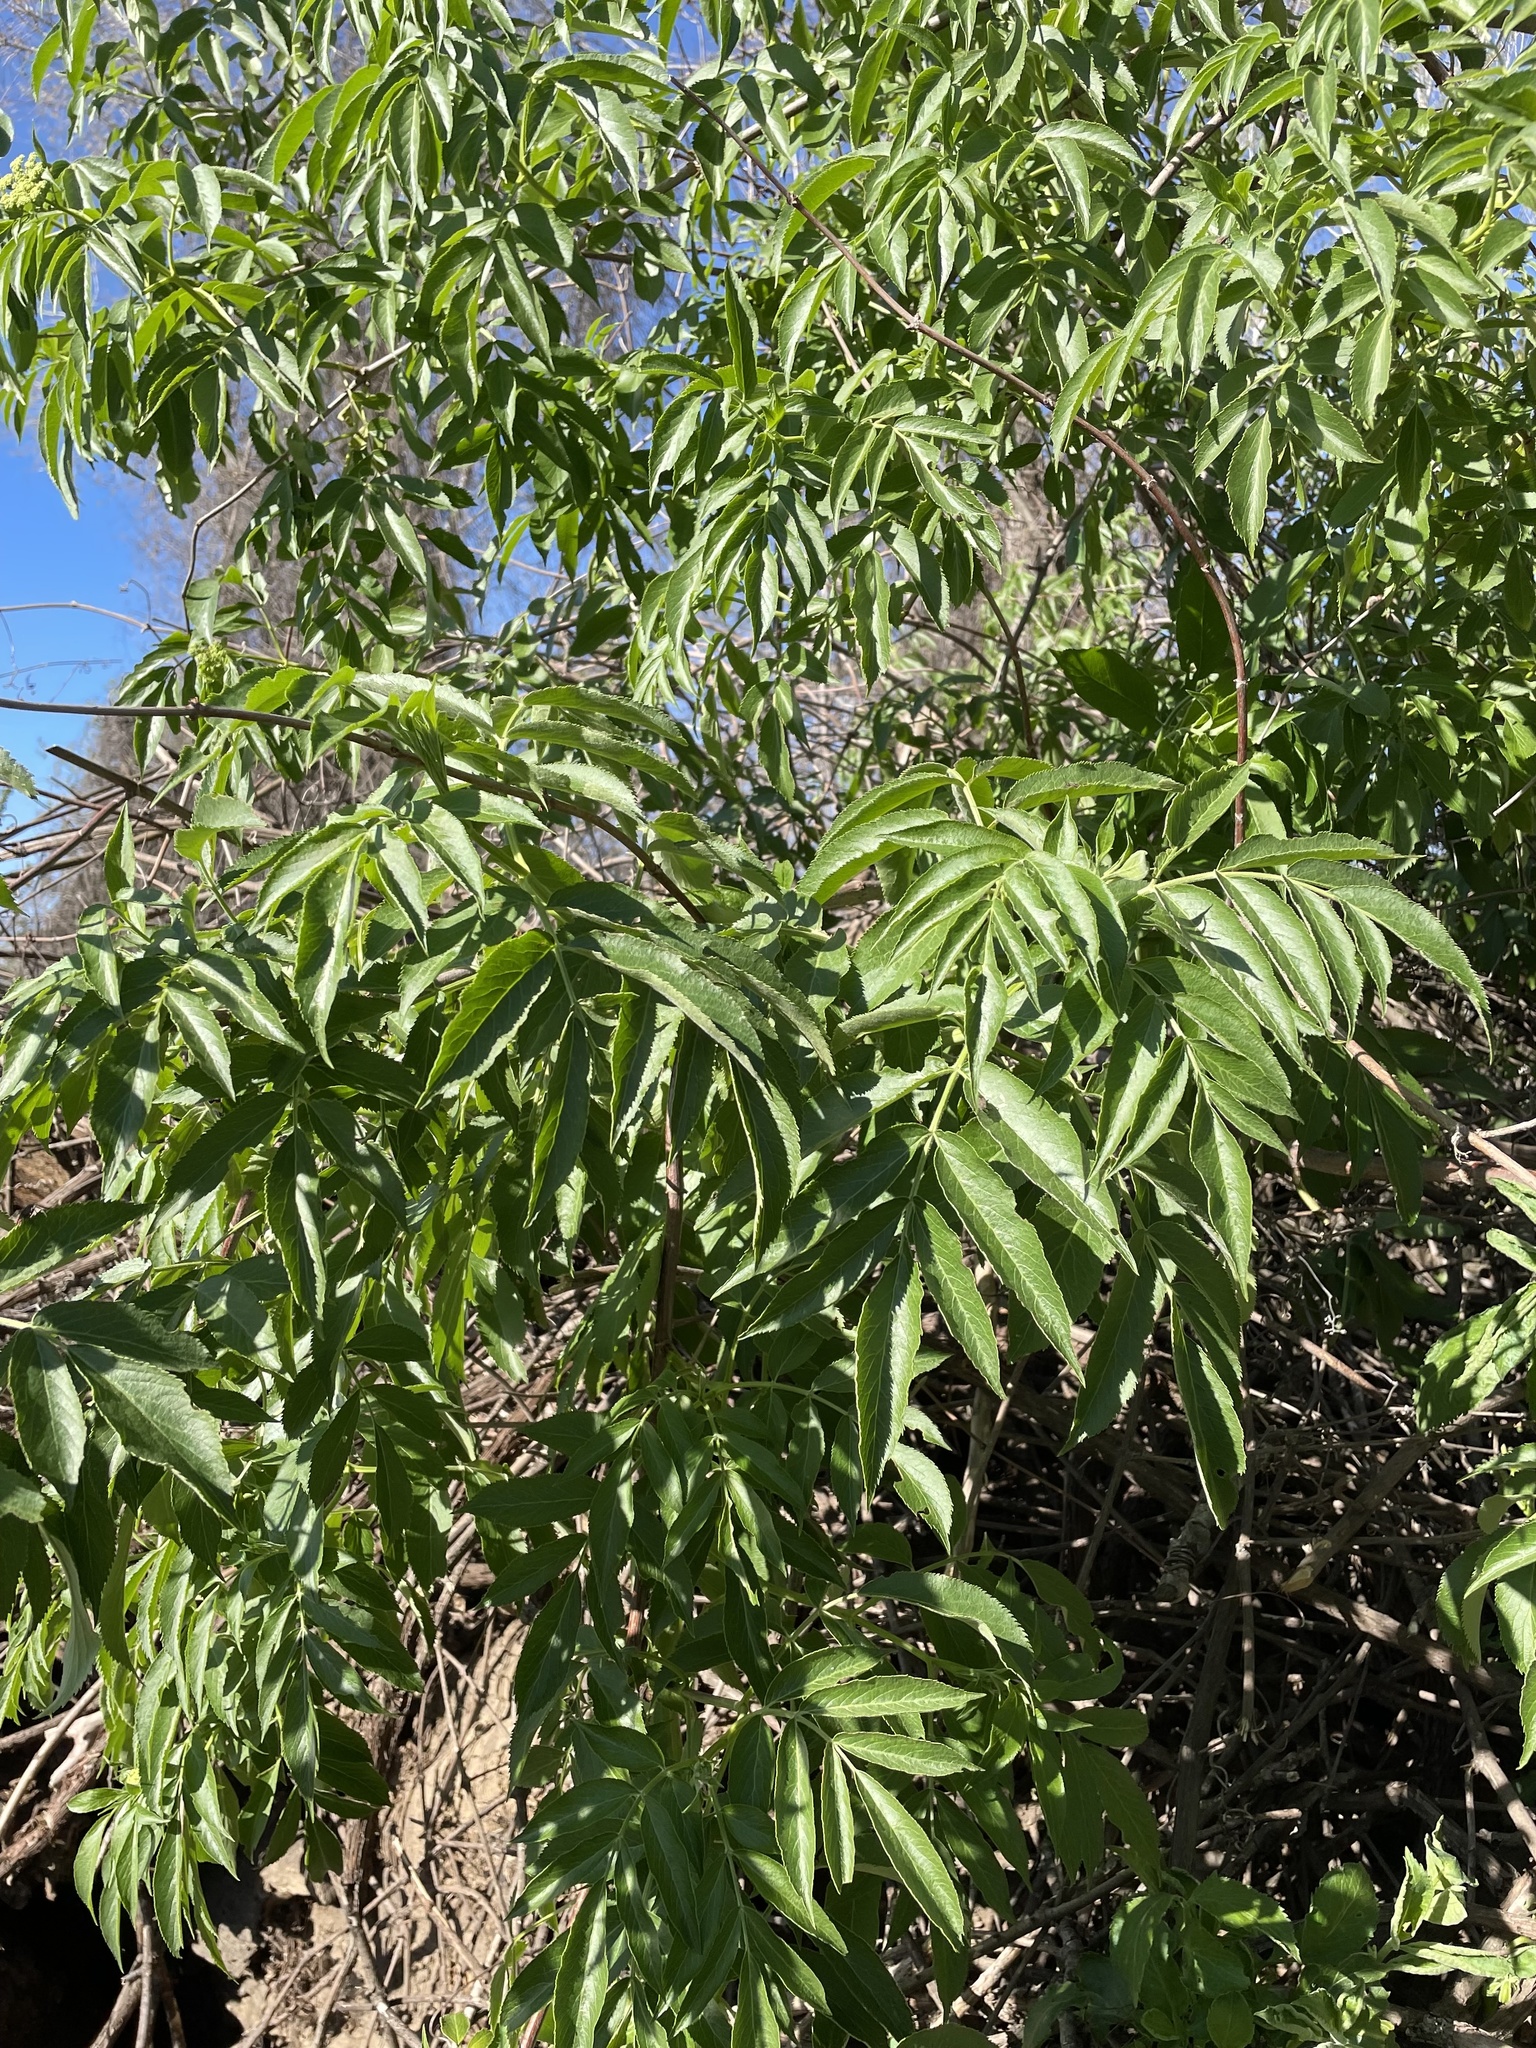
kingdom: Plantae
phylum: Tracheophyta
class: Magnoliopsida
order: Dipsacales
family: Viburnaceae
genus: Sambucus
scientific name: Sambucus cerulea
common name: Blue elder
